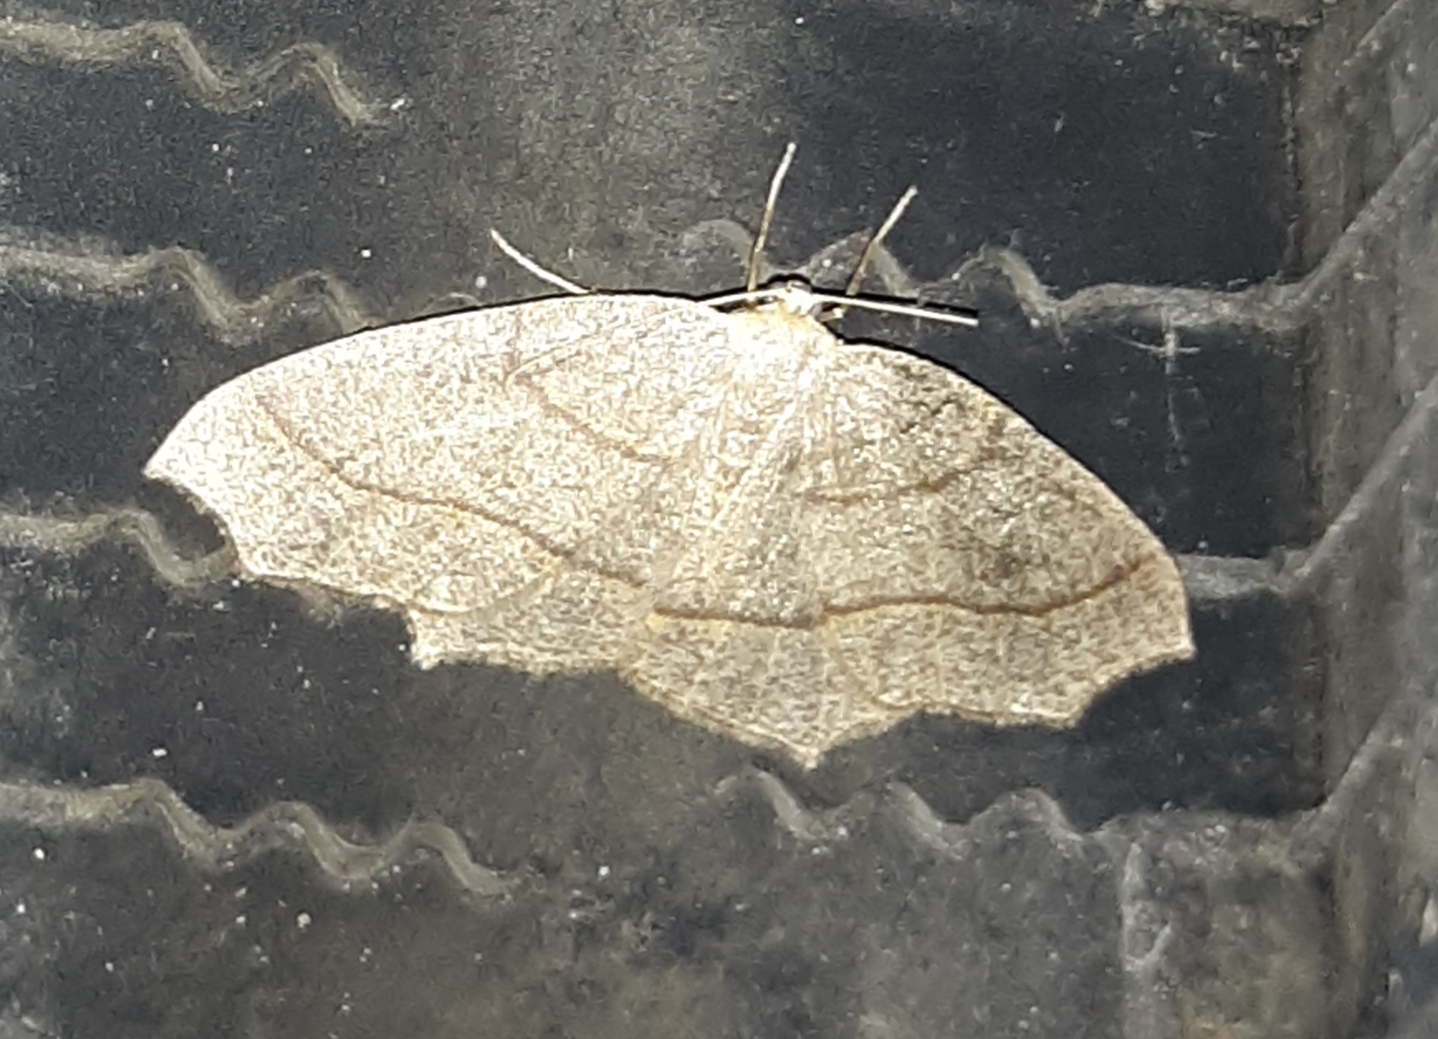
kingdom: Animalia
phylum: Arthropoda
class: Insecta
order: Lepidoptera
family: Geometridae
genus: Lambdina
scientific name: Lambdina fiscellaria
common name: Hemlock looper
